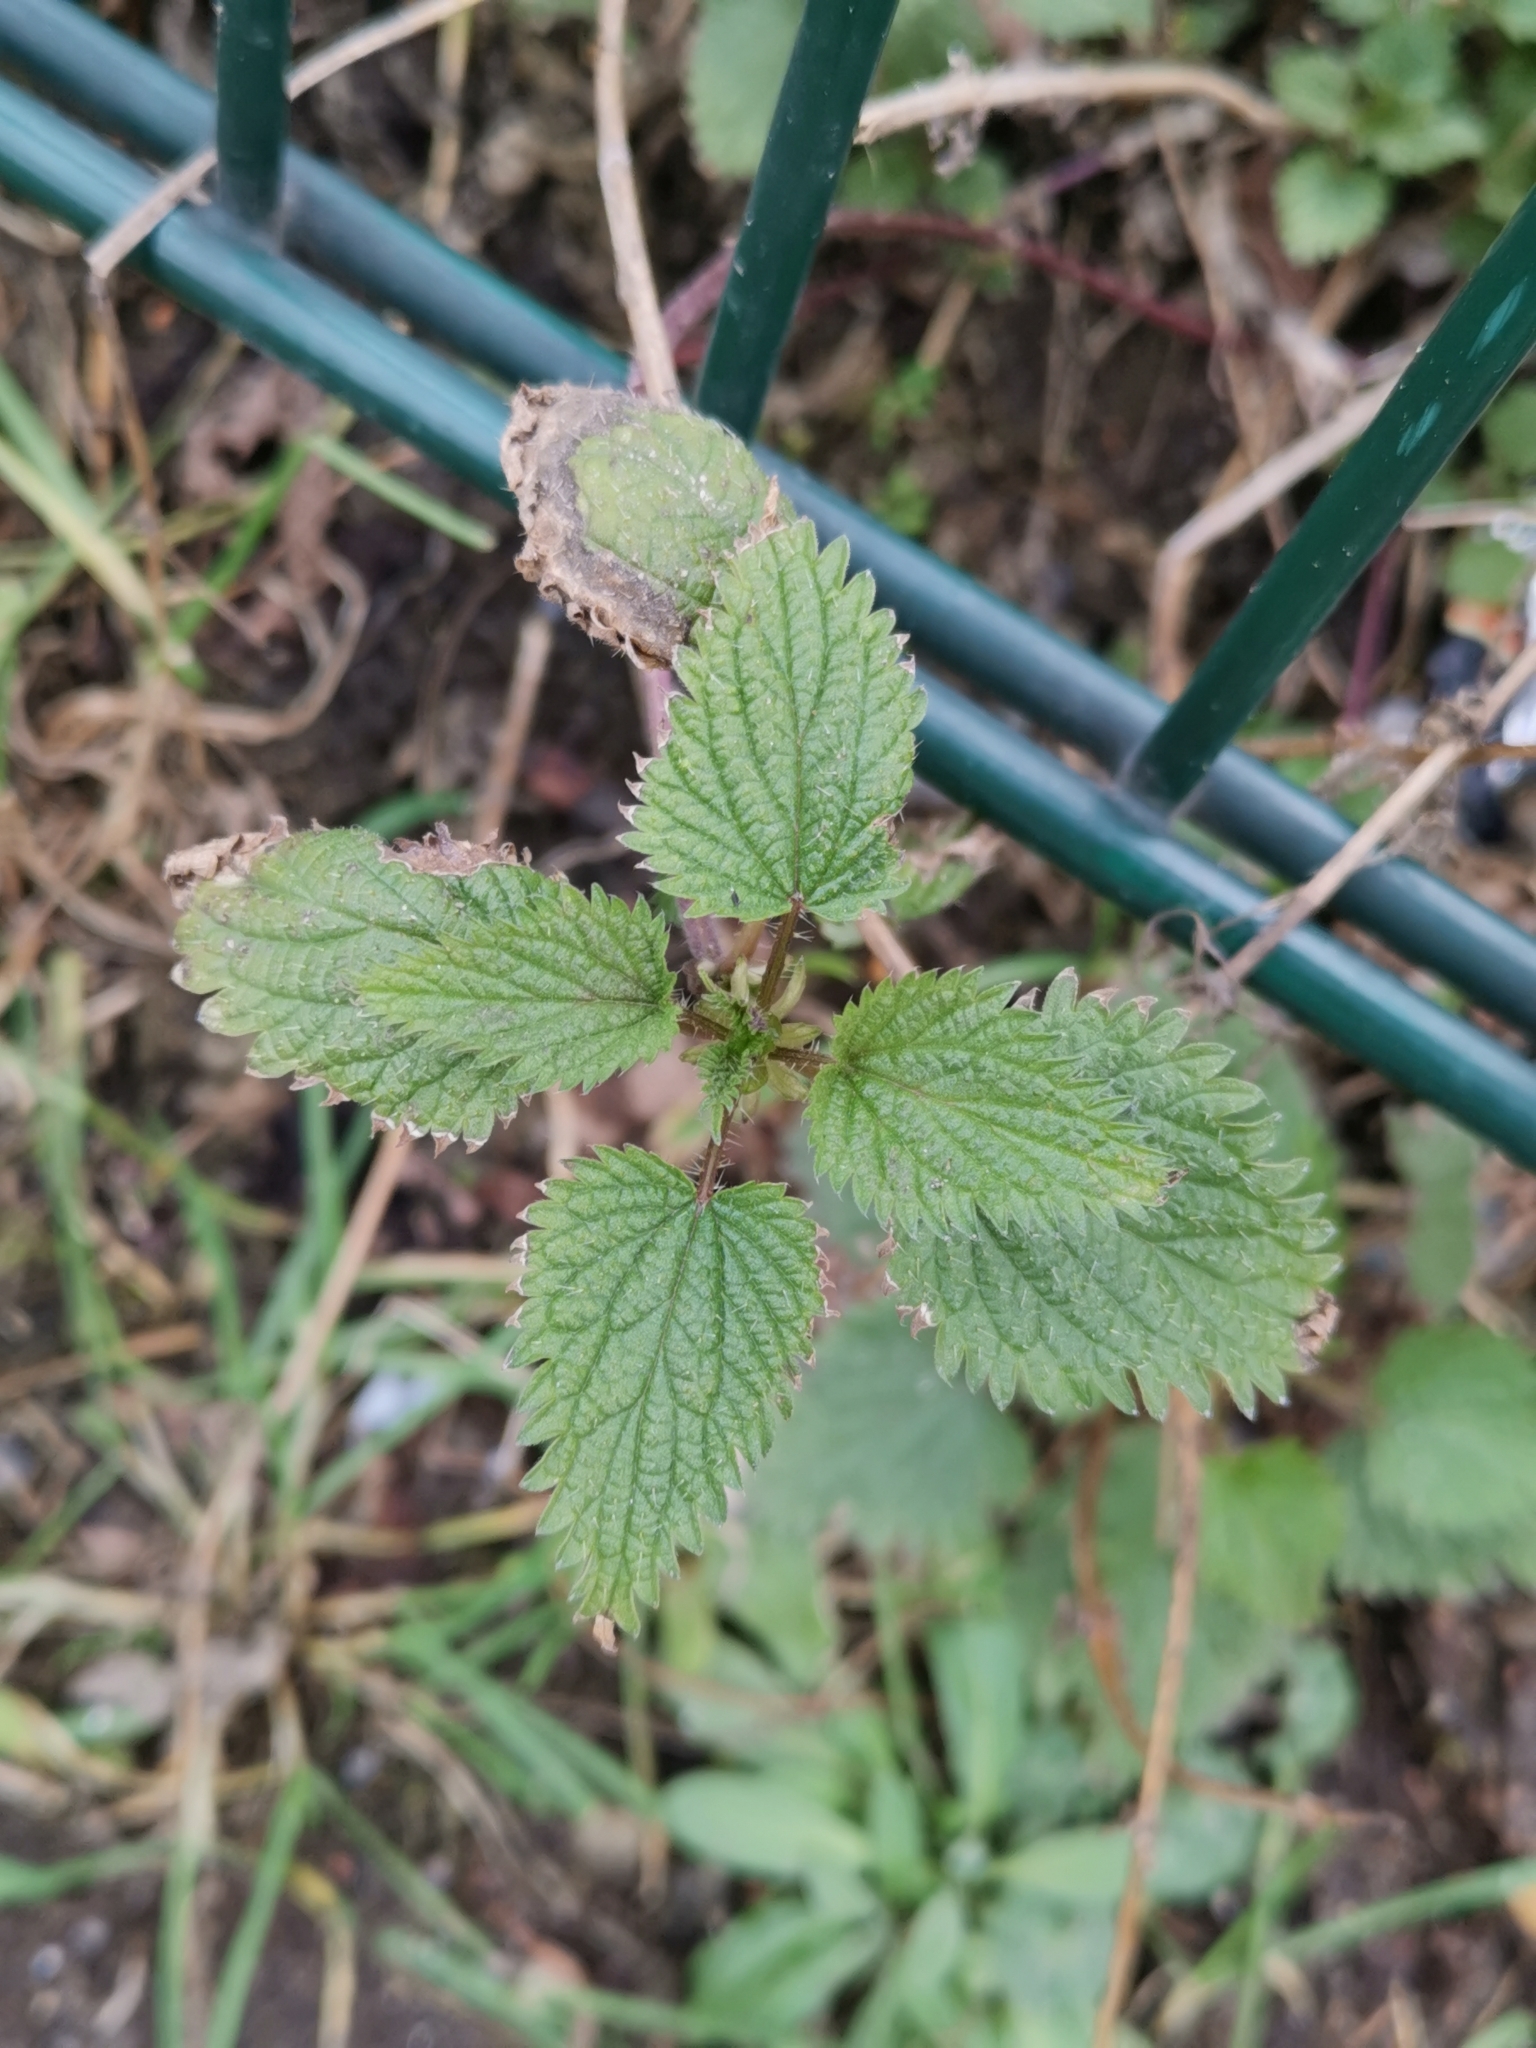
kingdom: Plantae
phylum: Tracheophyta
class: Magnoliopsida
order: Rosales
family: Urticaceae
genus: Urtica
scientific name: Urtica dioica
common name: Common nettle
